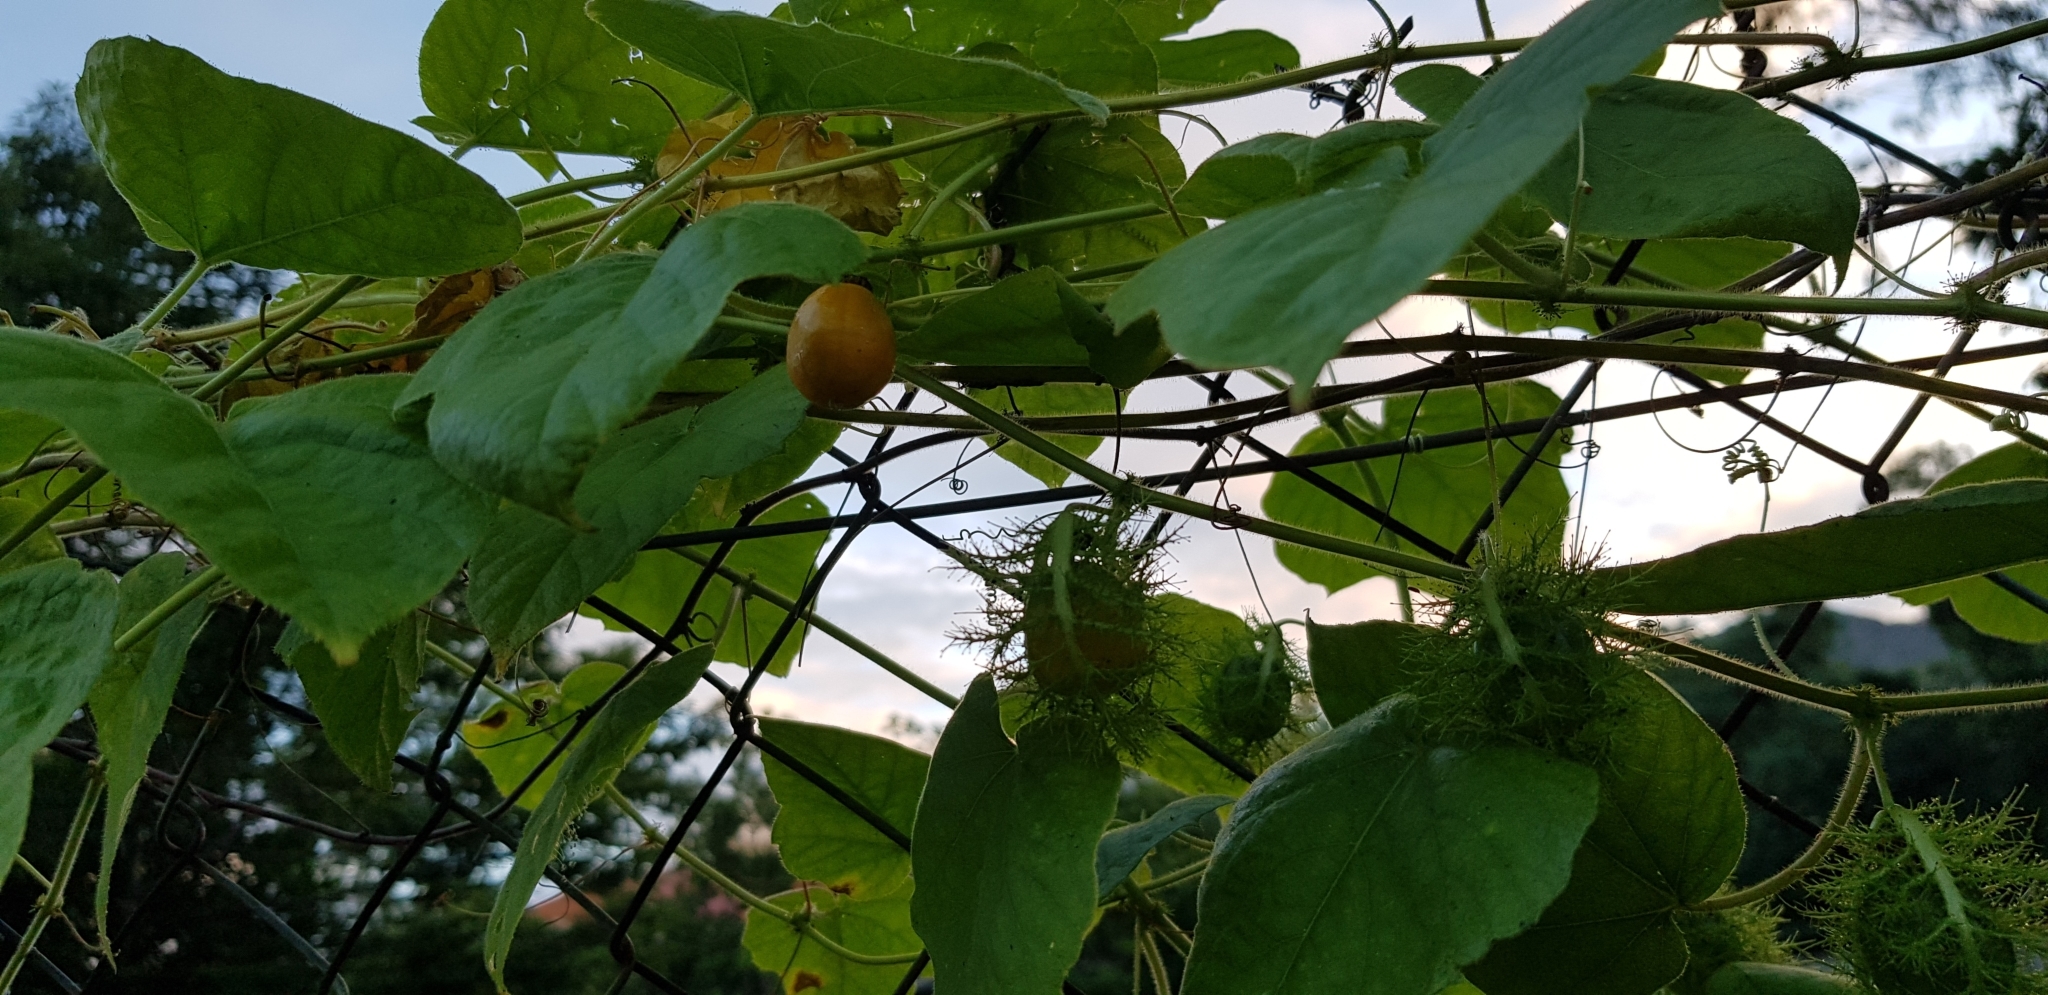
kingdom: Plantae
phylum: Tracheophyta
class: Magnoliopsida
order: Malpighiales
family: Passifloraceae
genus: Passiflora
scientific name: Passiflora foetida
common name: Fetid passionflower
